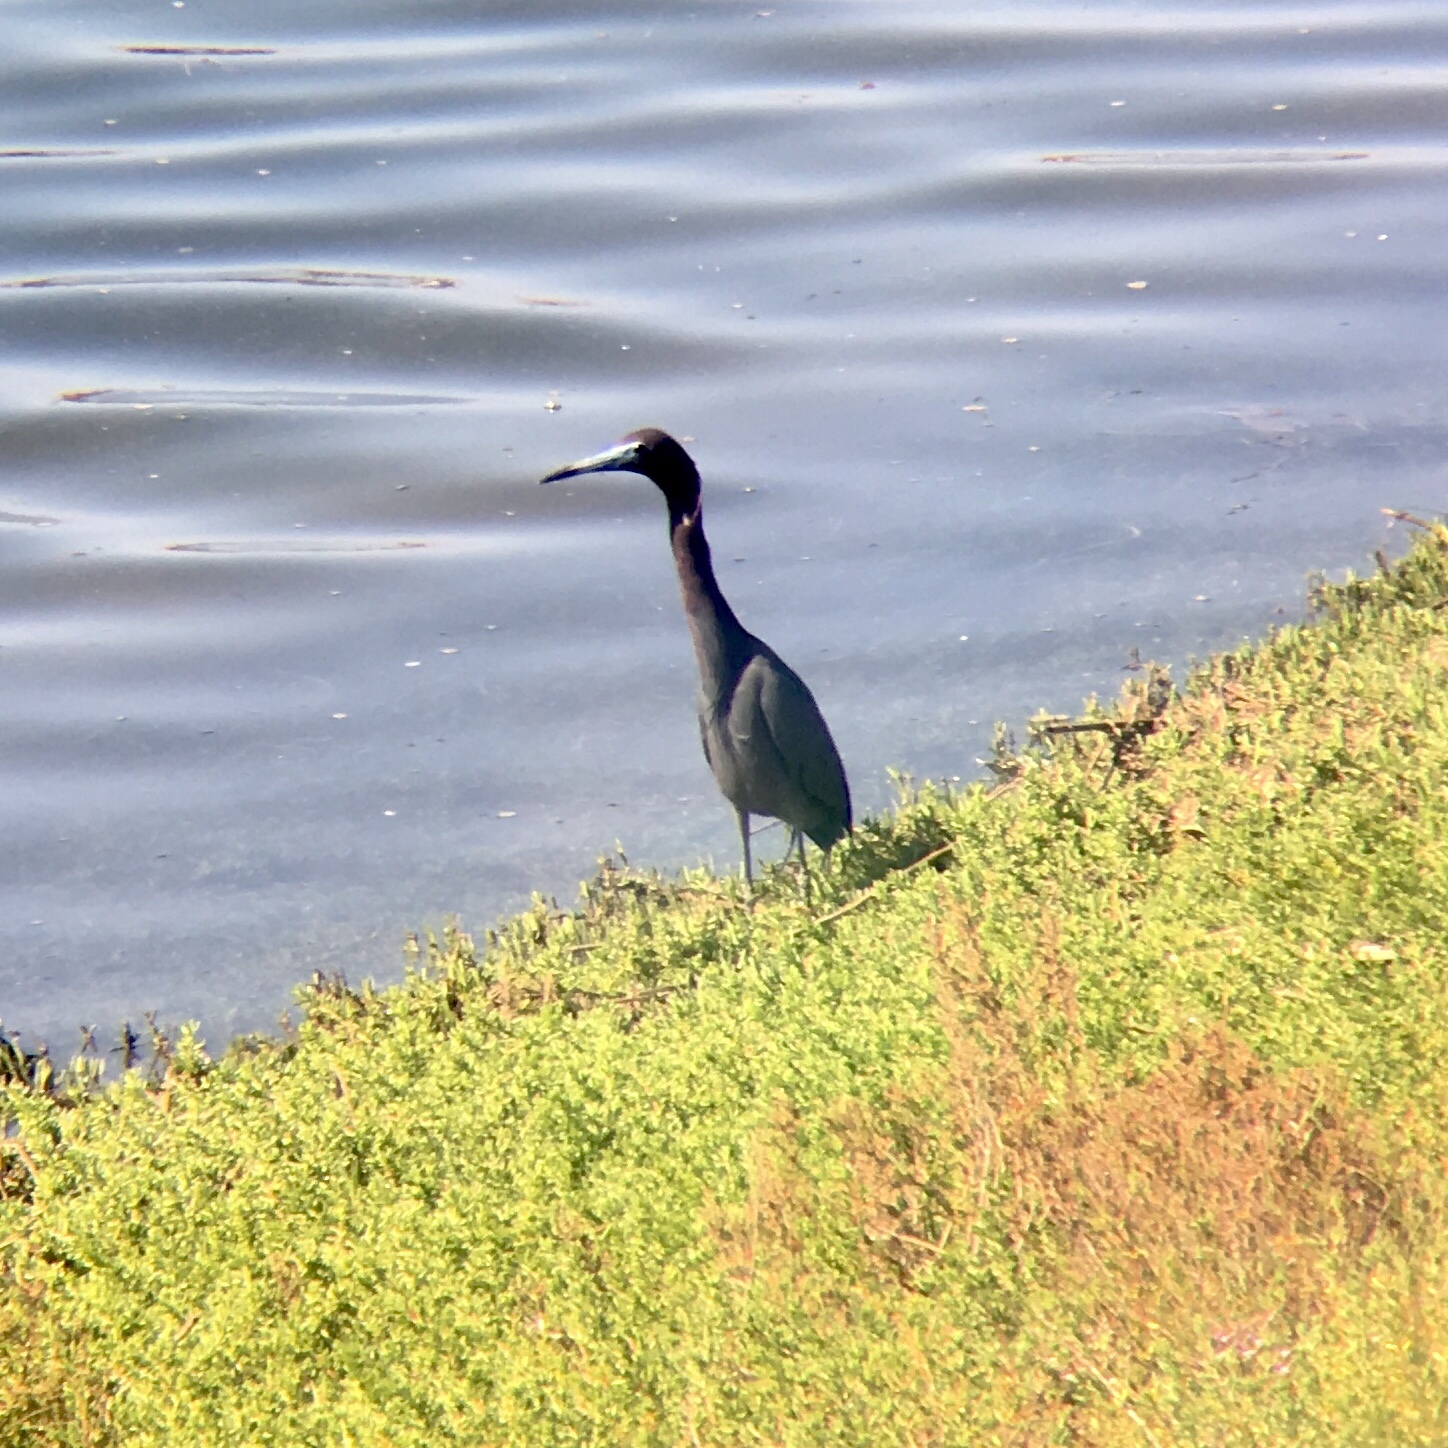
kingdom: Animalia
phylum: Chordata
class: Aves
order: Pelecaniformes
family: Ardeidae
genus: Egretta
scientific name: Egretta caerulea
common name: Little blue heron
